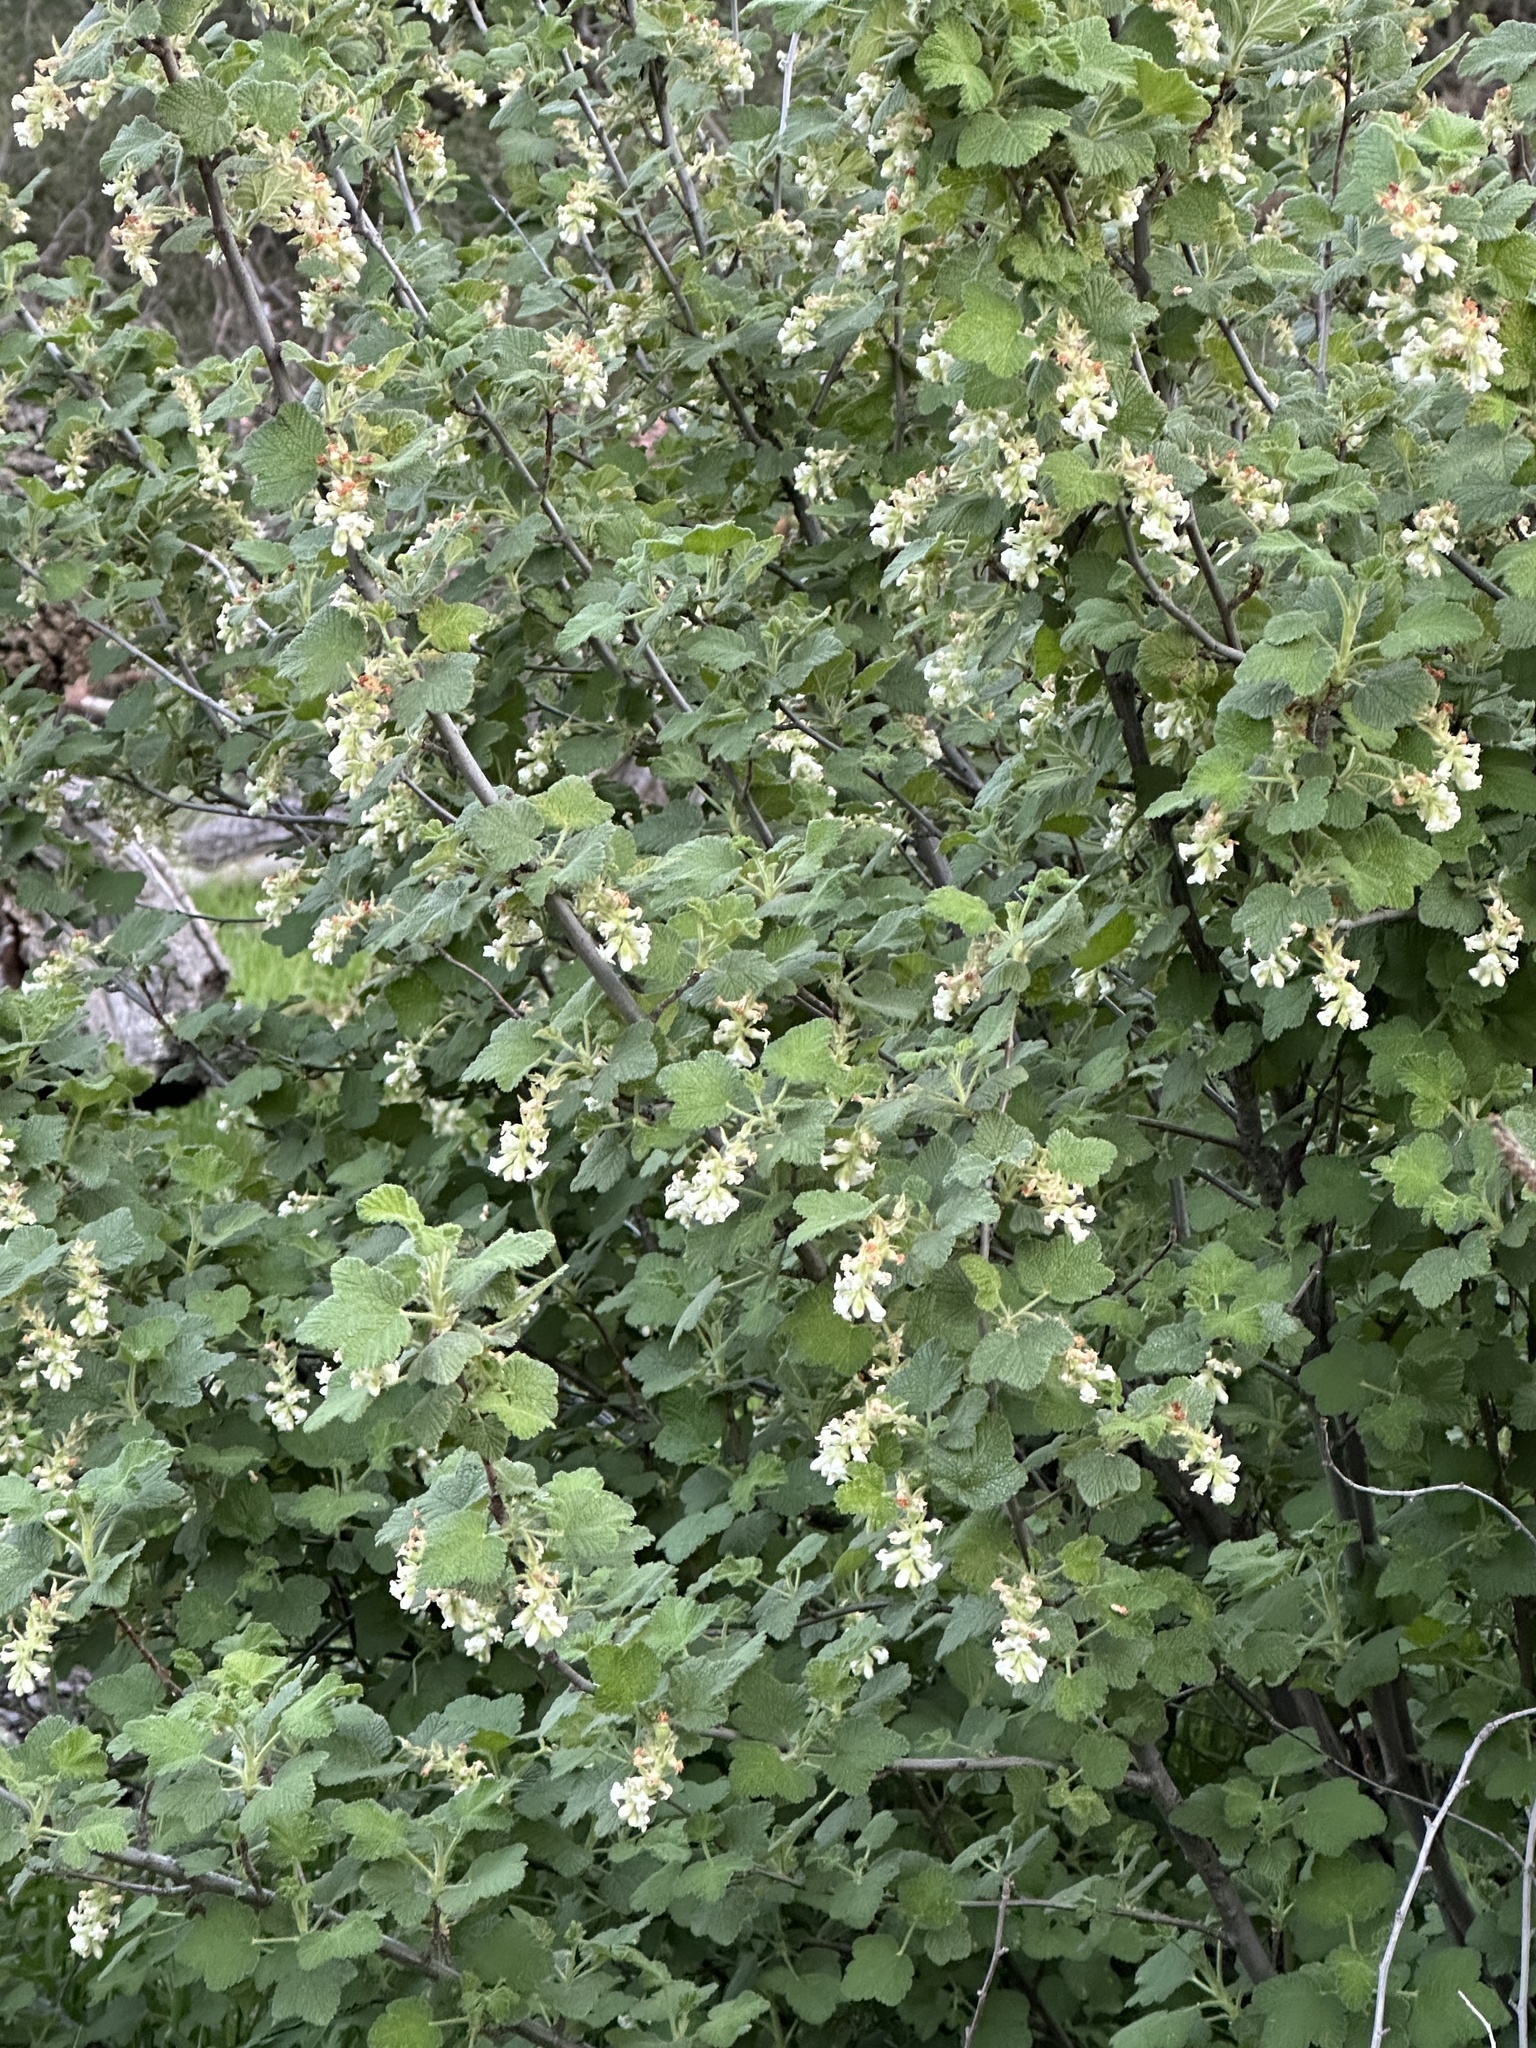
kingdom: Plantae
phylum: Tracheophyta
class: Magnoliopsida
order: Saxifragales
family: Grossulariaceae
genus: Ribes
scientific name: Ribes indecorum
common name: White-flower currant
